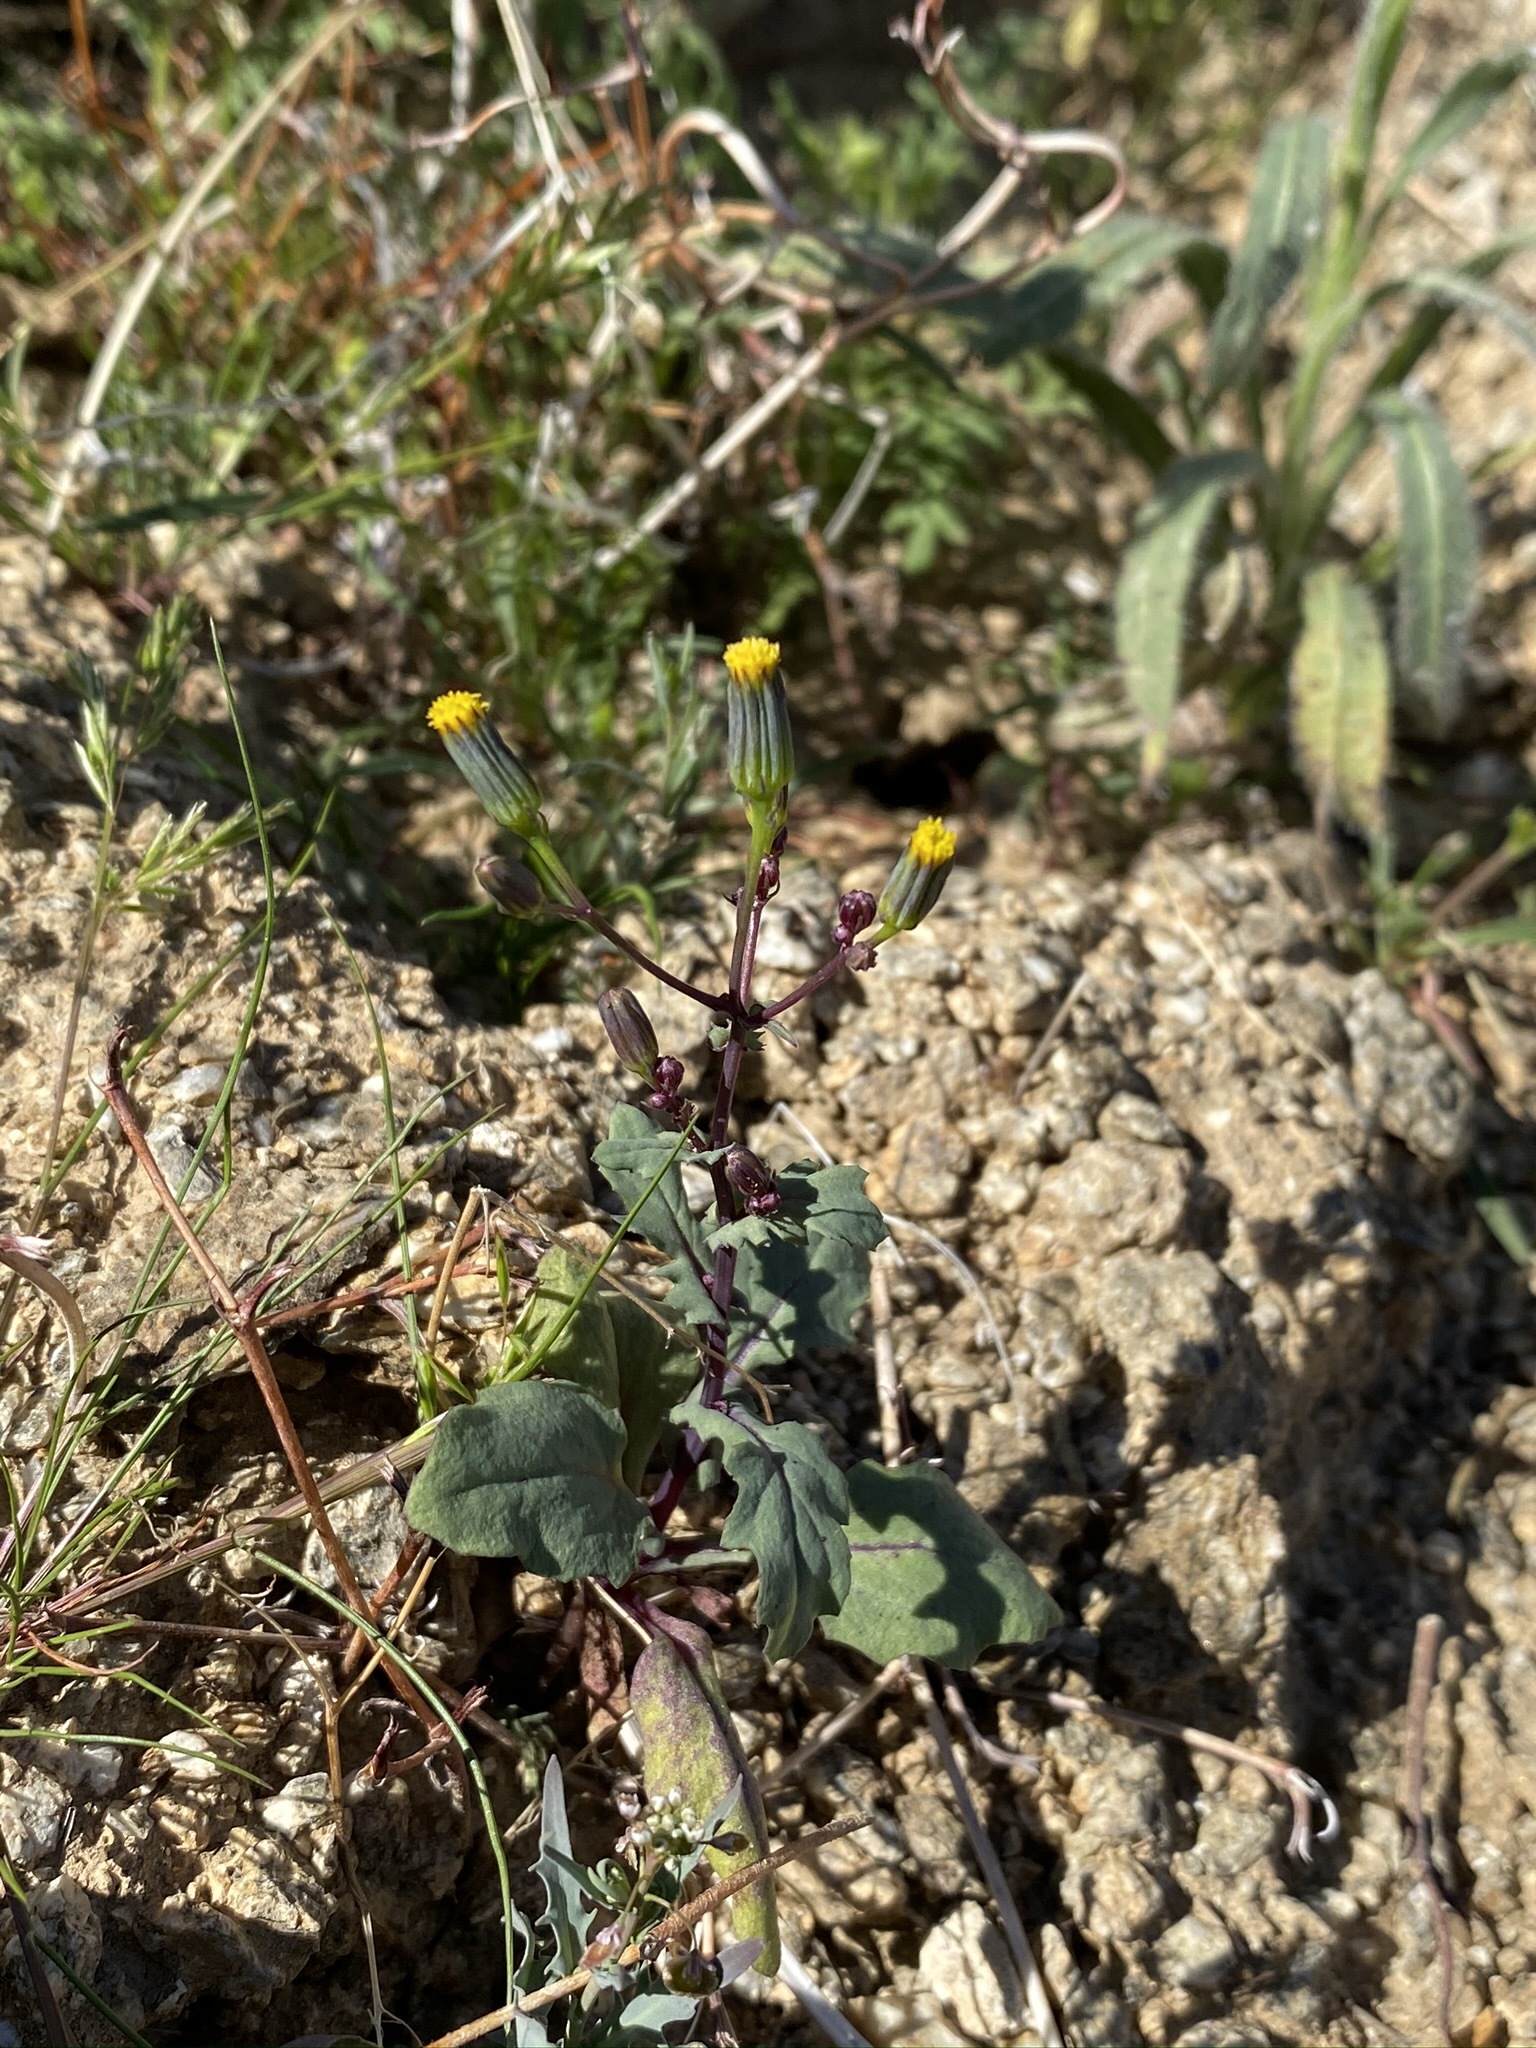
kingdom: Plantae
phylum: Tracheophyta
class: Magnoliopsida
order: Asterales
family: Asteraceae
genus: Senecio
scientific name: Senecio mohavensis
